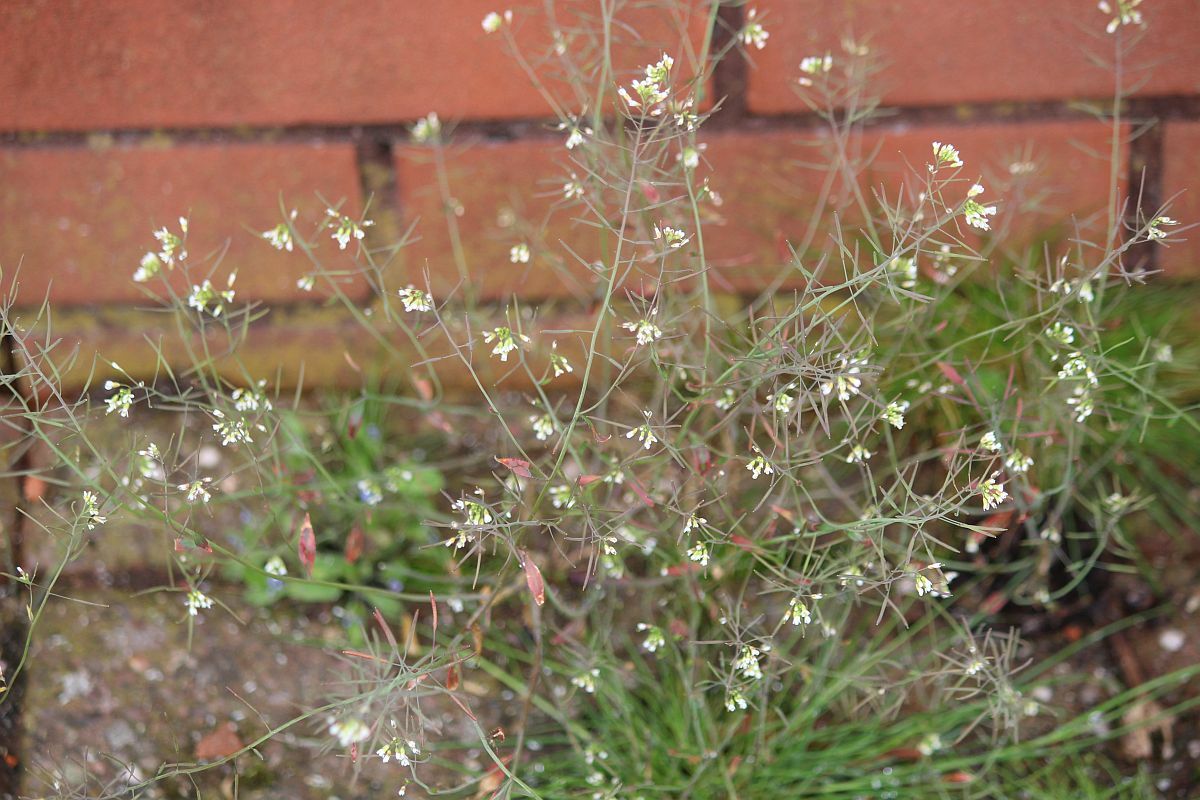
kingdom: Plantae
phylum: Tracheophyta
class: Magnoliopsida
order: Brassicales
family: Brassicaceae
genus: Arabidopsis
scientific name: Arabidopsis thaliana
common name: Thale cress
